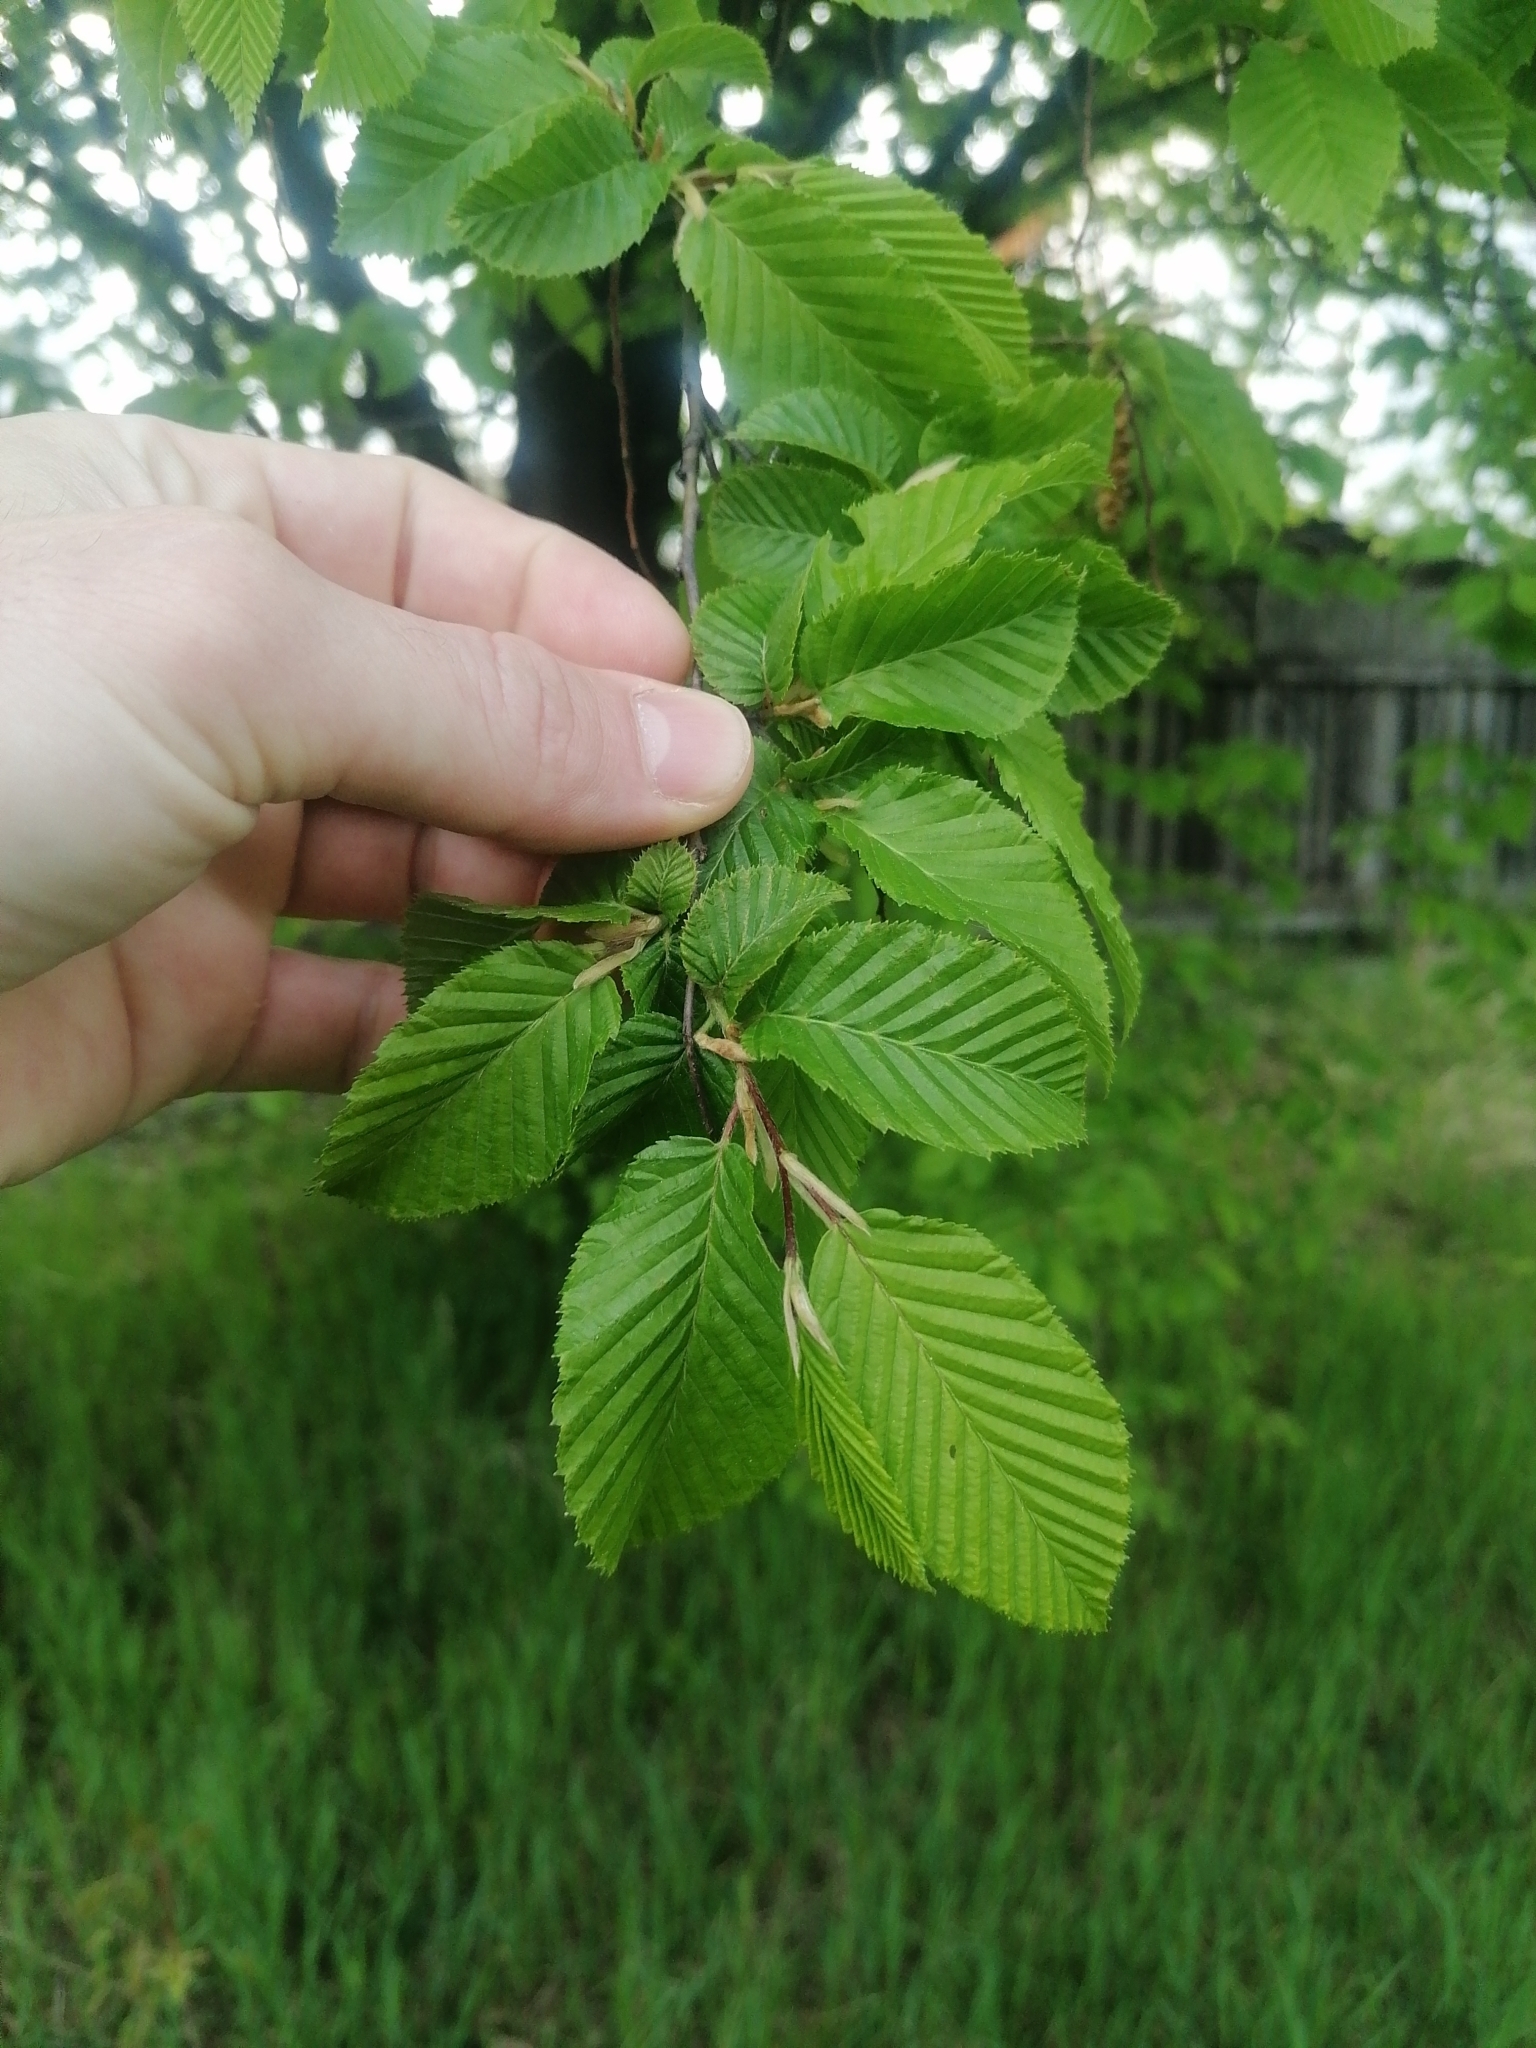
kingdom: Plantae
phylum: Tracheophyta
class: Magnoliopsida
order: Fagales
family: Betulaceae
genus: Carpinus
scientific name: Carpinus betulus
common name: Hornbeam
